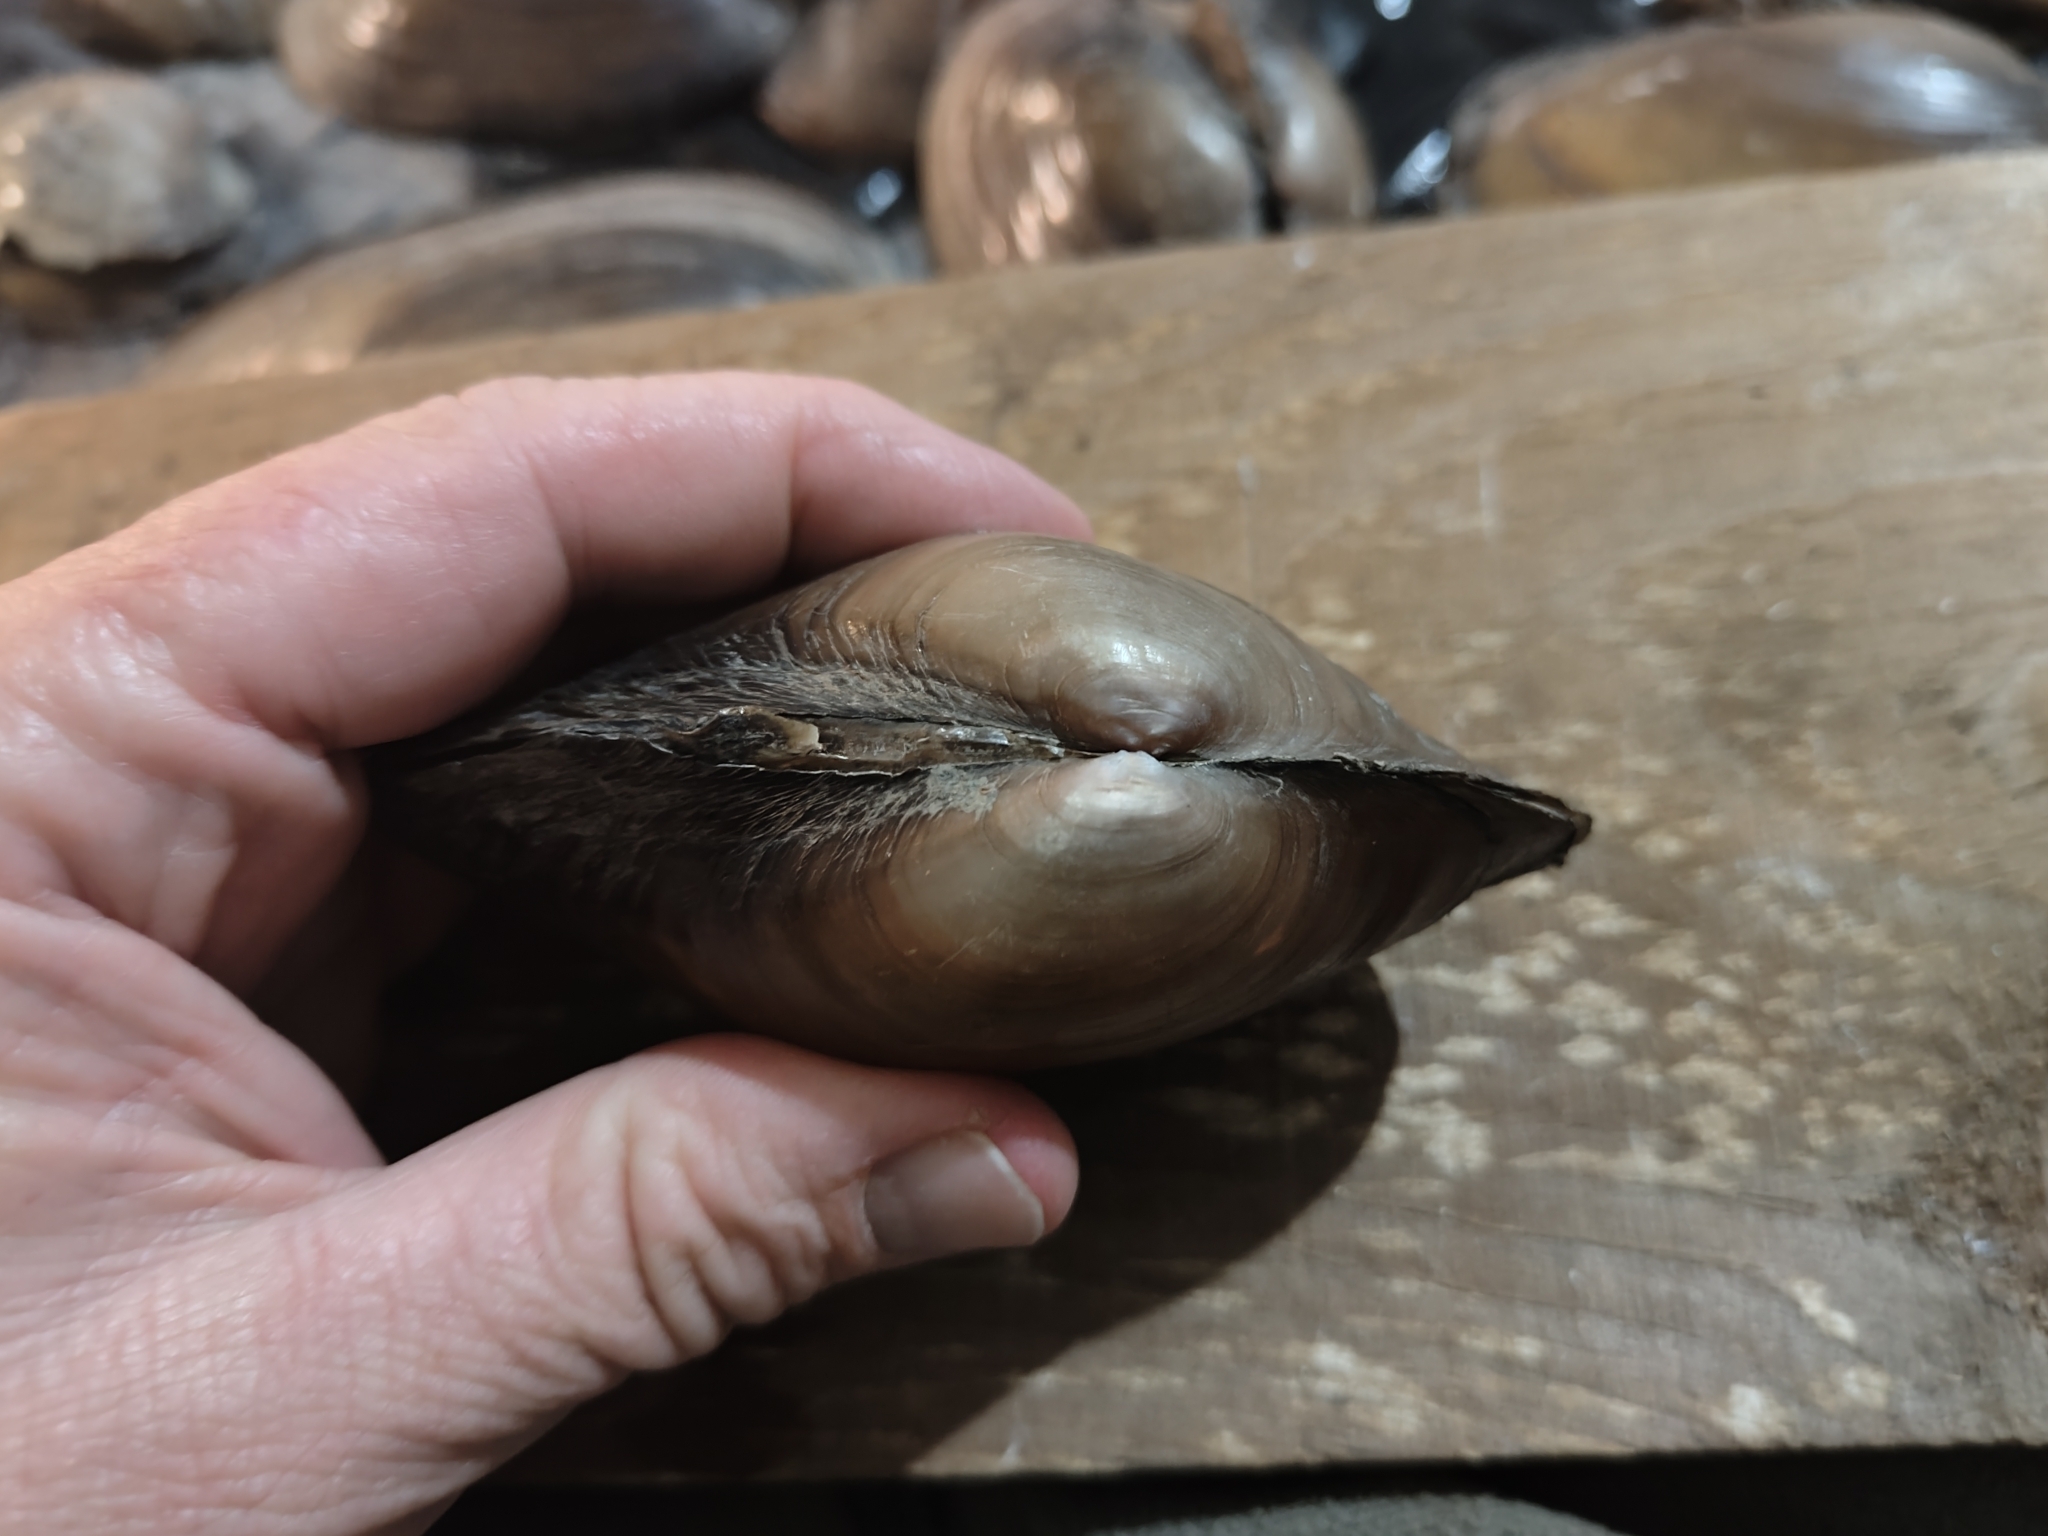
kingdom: Animalia
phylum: Mollusca
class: Bivalvia
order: Unionida
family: Unionidae
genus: Pyganodon
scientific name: Pyganodon grandis
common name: Giant floater
